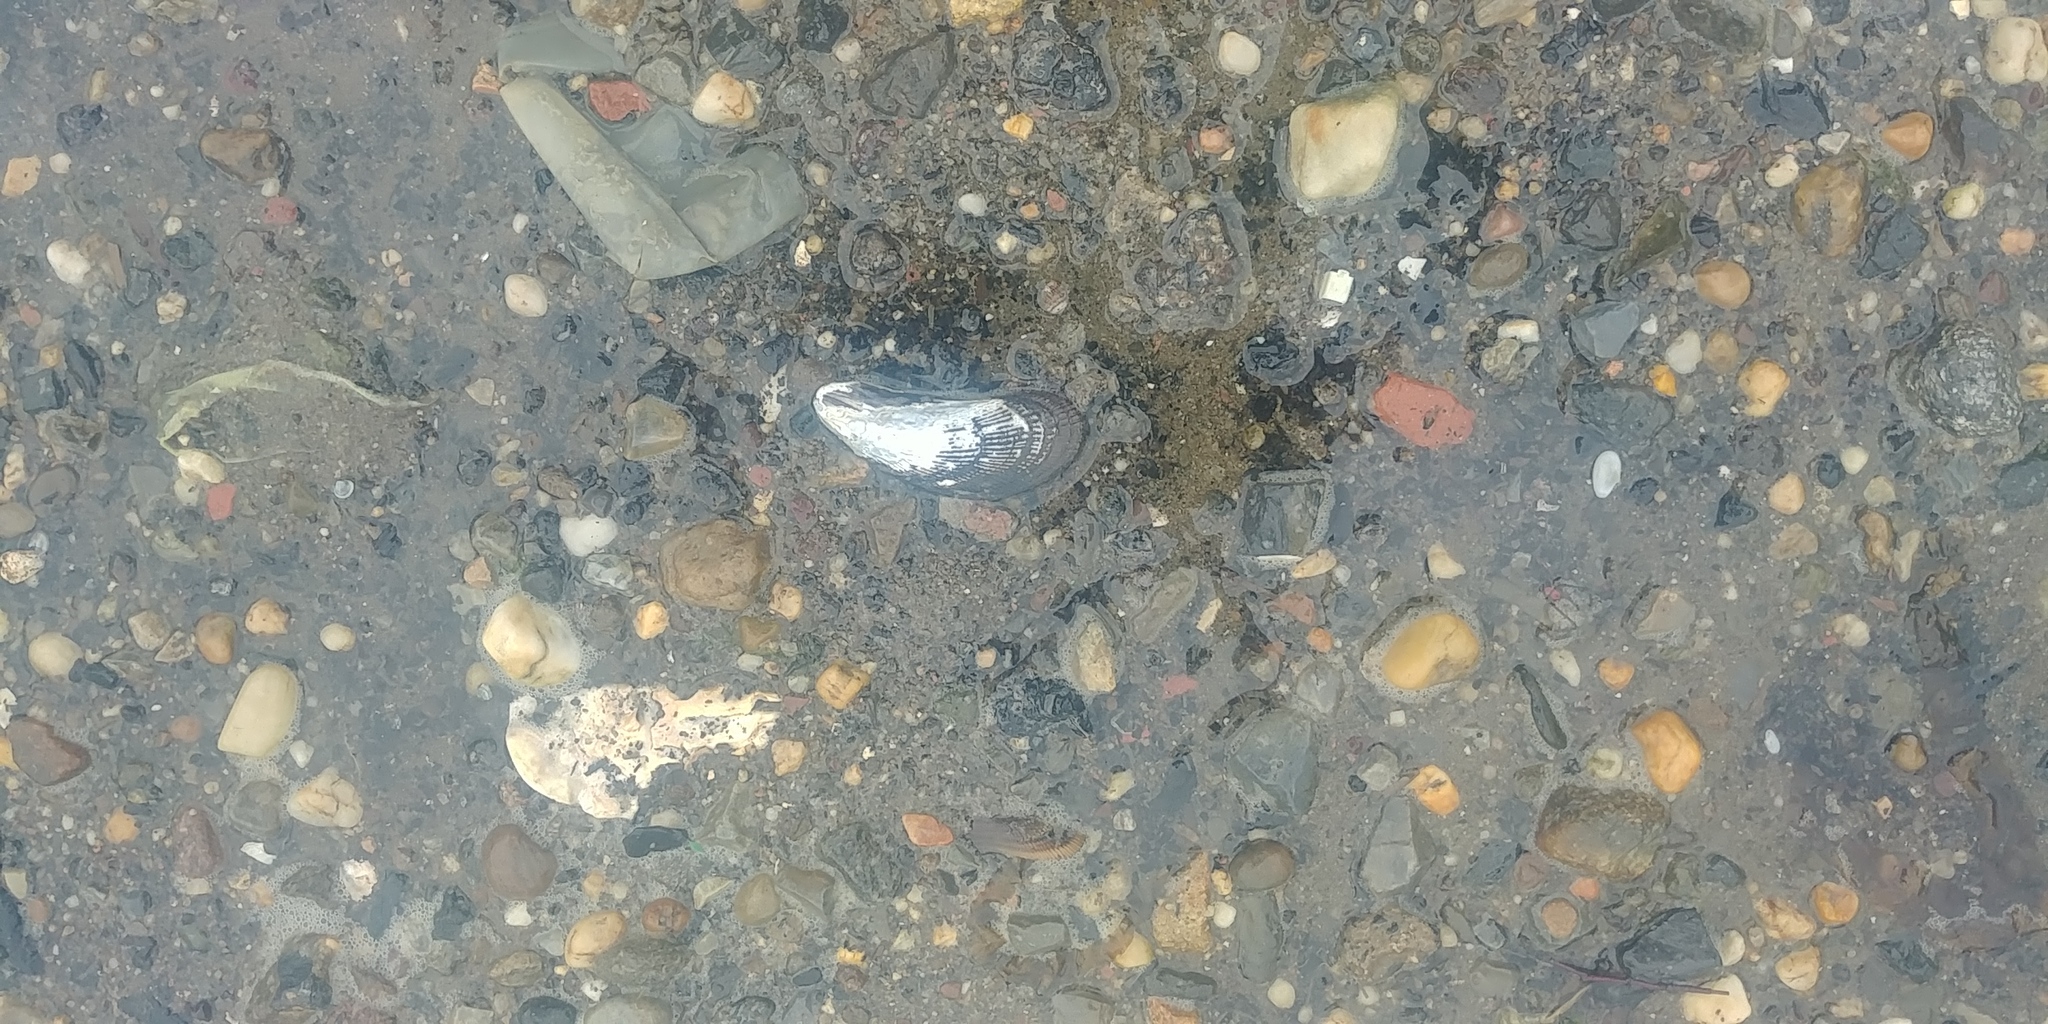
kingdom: Animalia
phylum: Mollusca
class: Bivalvia
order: Mytilida
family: Mytilidae
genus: Geukensia
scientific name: Geukensia demissa
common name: Ribbed mussel
